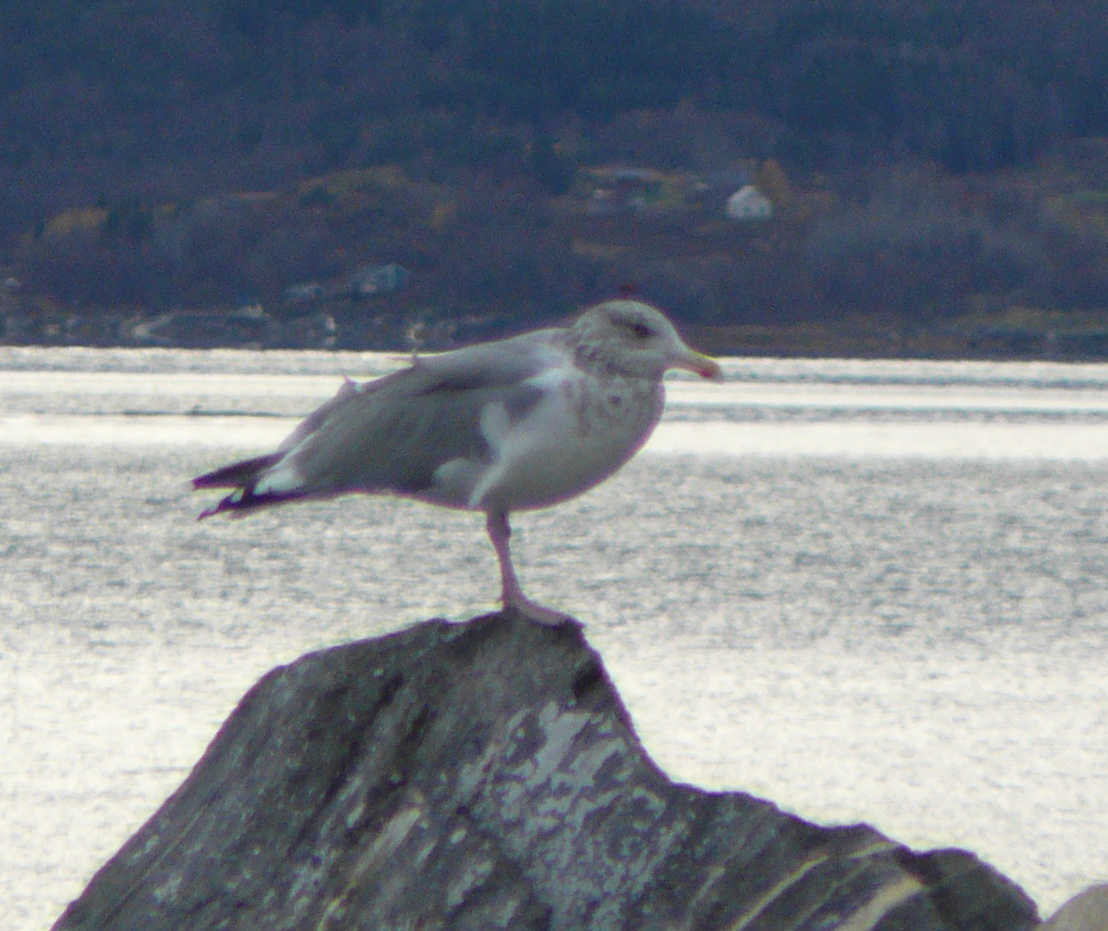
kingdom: Animalia
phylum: Chordata
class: Aves
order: Charadriiformes
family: Laridae
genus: Larus
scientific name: Larus argentatus
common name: Herring gull
